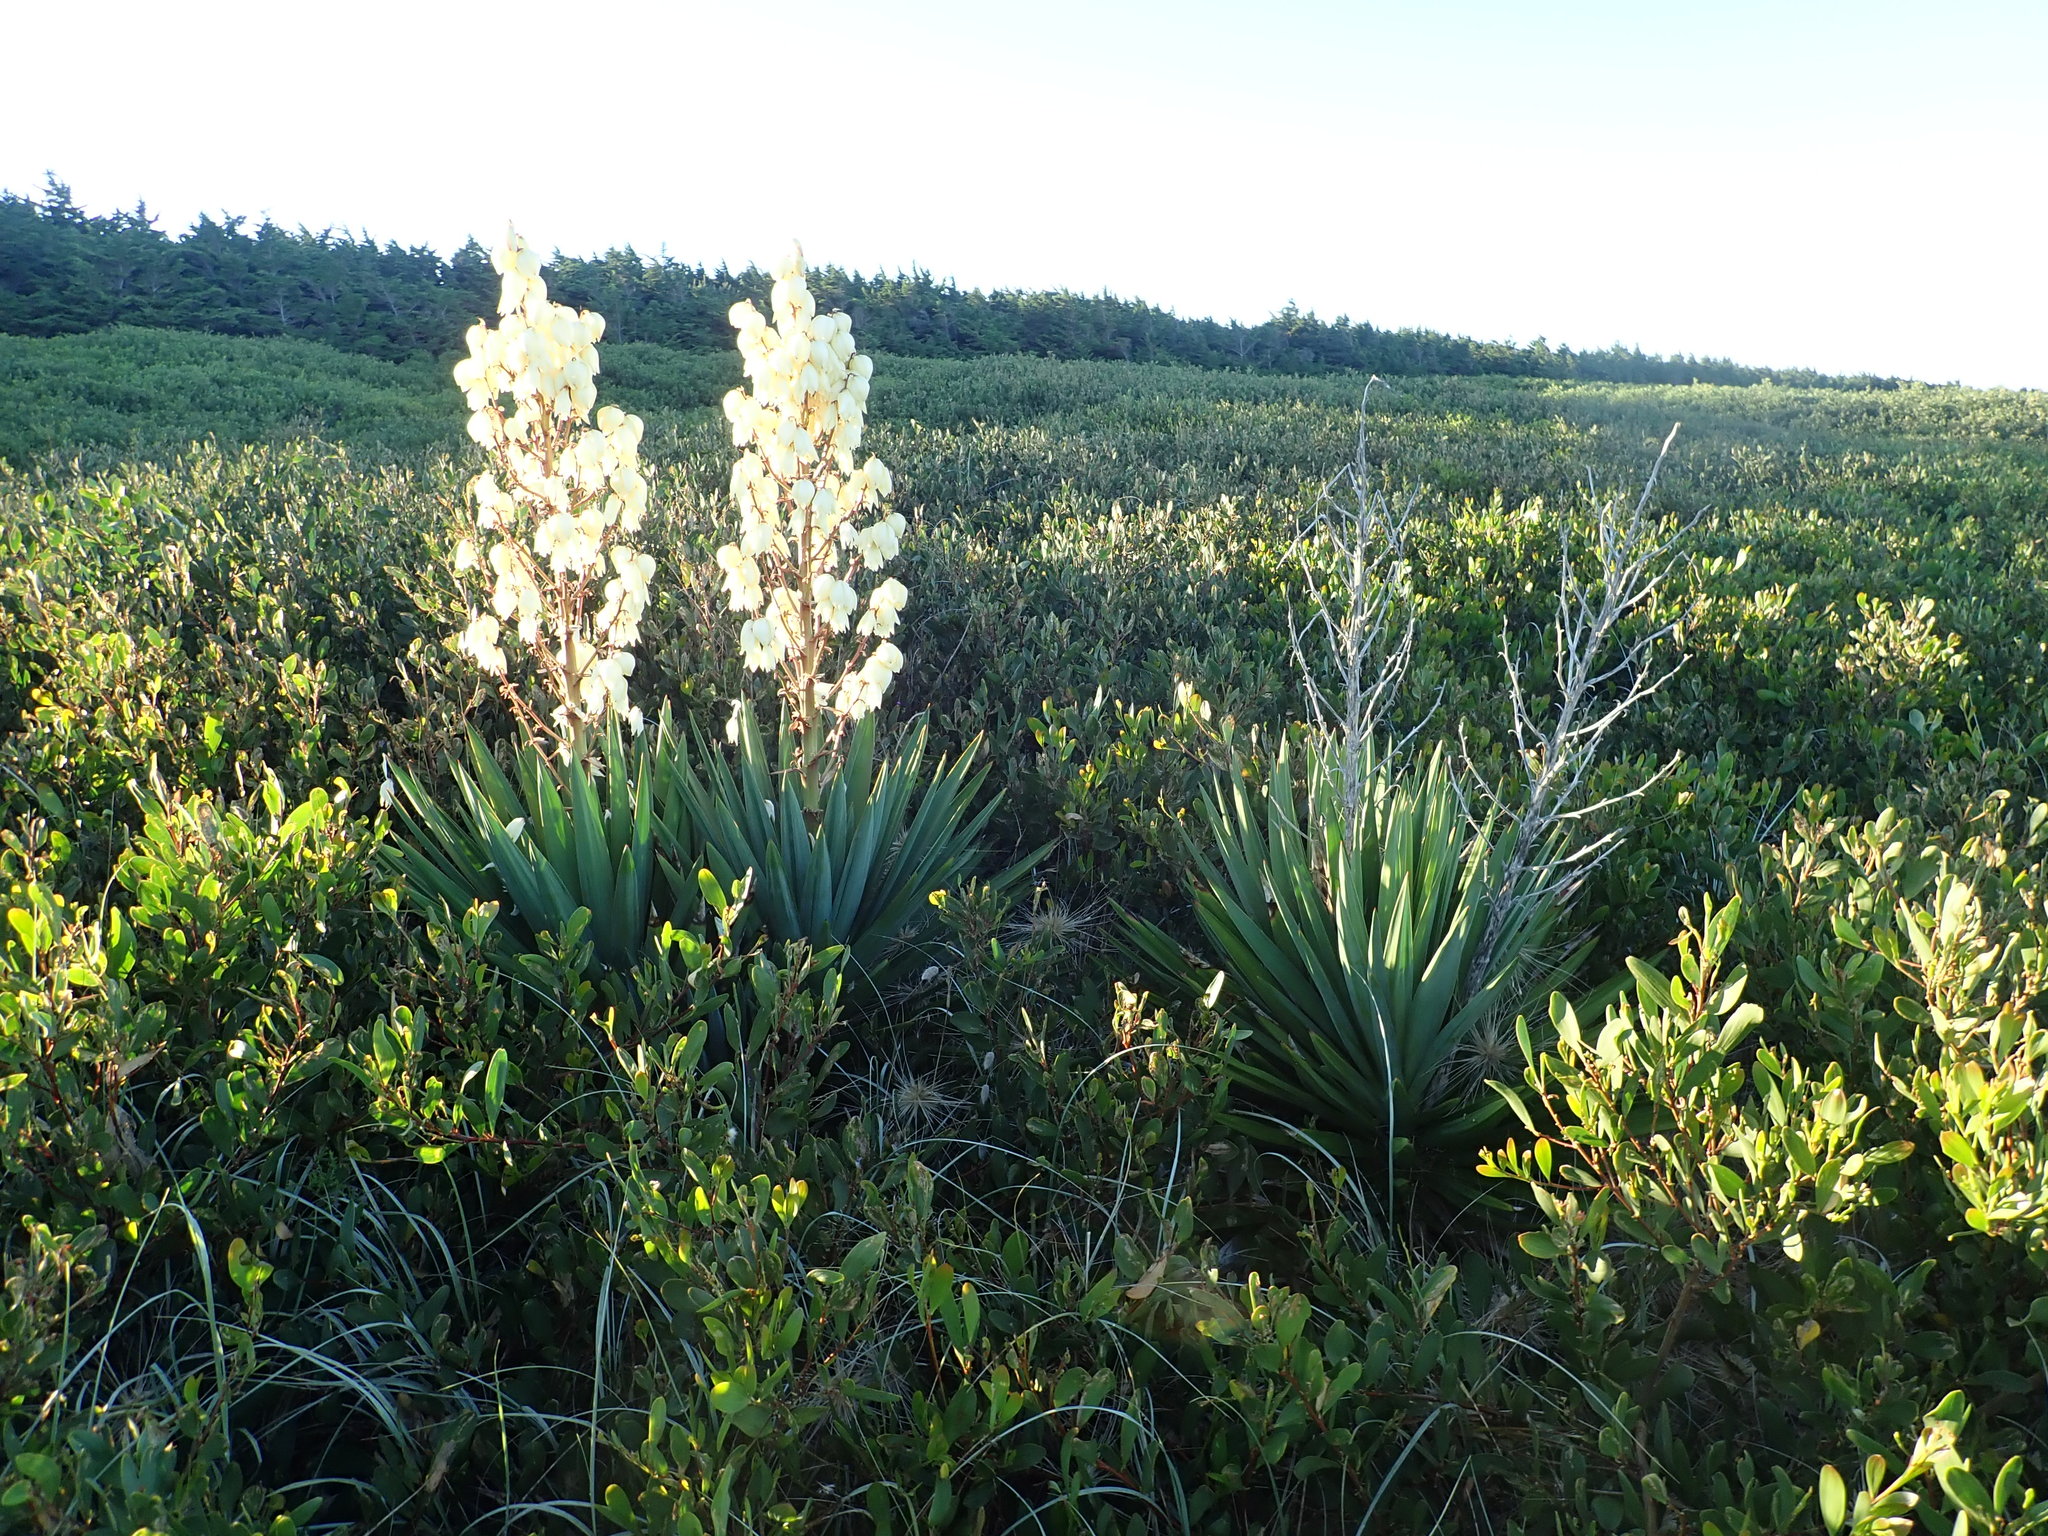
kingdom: Plantae
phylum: Tracheophyta
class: Liliopsida
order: Asparagales
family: Asparagaceae
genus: Yucca
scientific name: Yucca gloriosa
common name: Spanish-dagger
